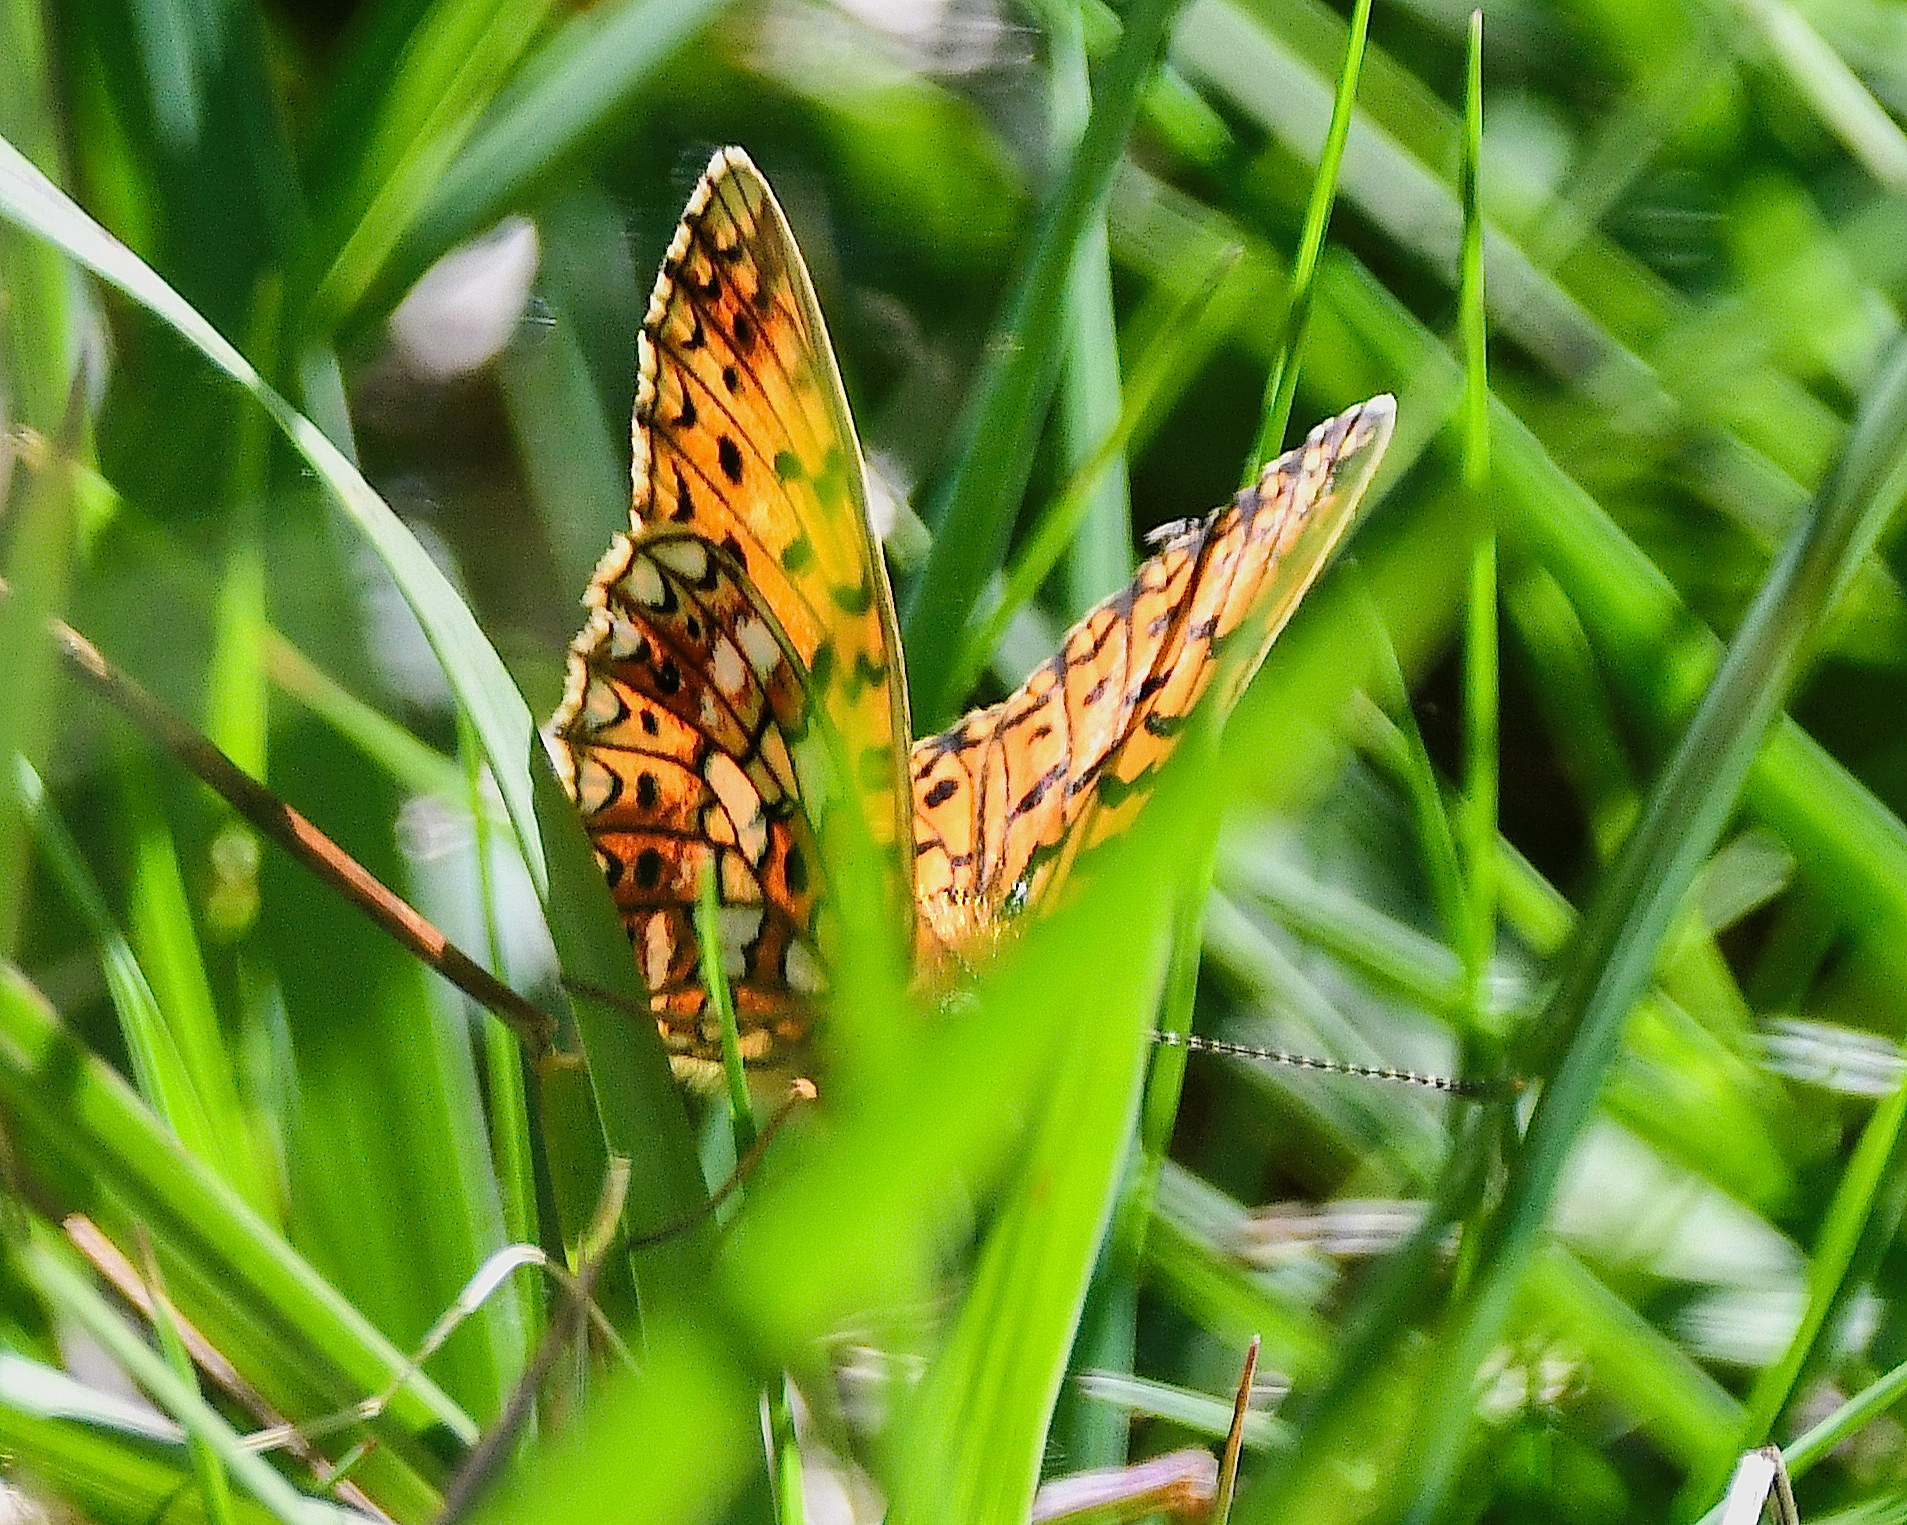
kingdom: Animalia
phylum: Arthropoda
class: Insecta
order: Lepidoptera
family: Nymphalidae
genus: Boloria
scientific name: Boloria selene
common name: Small pearl-bordered fritillary
